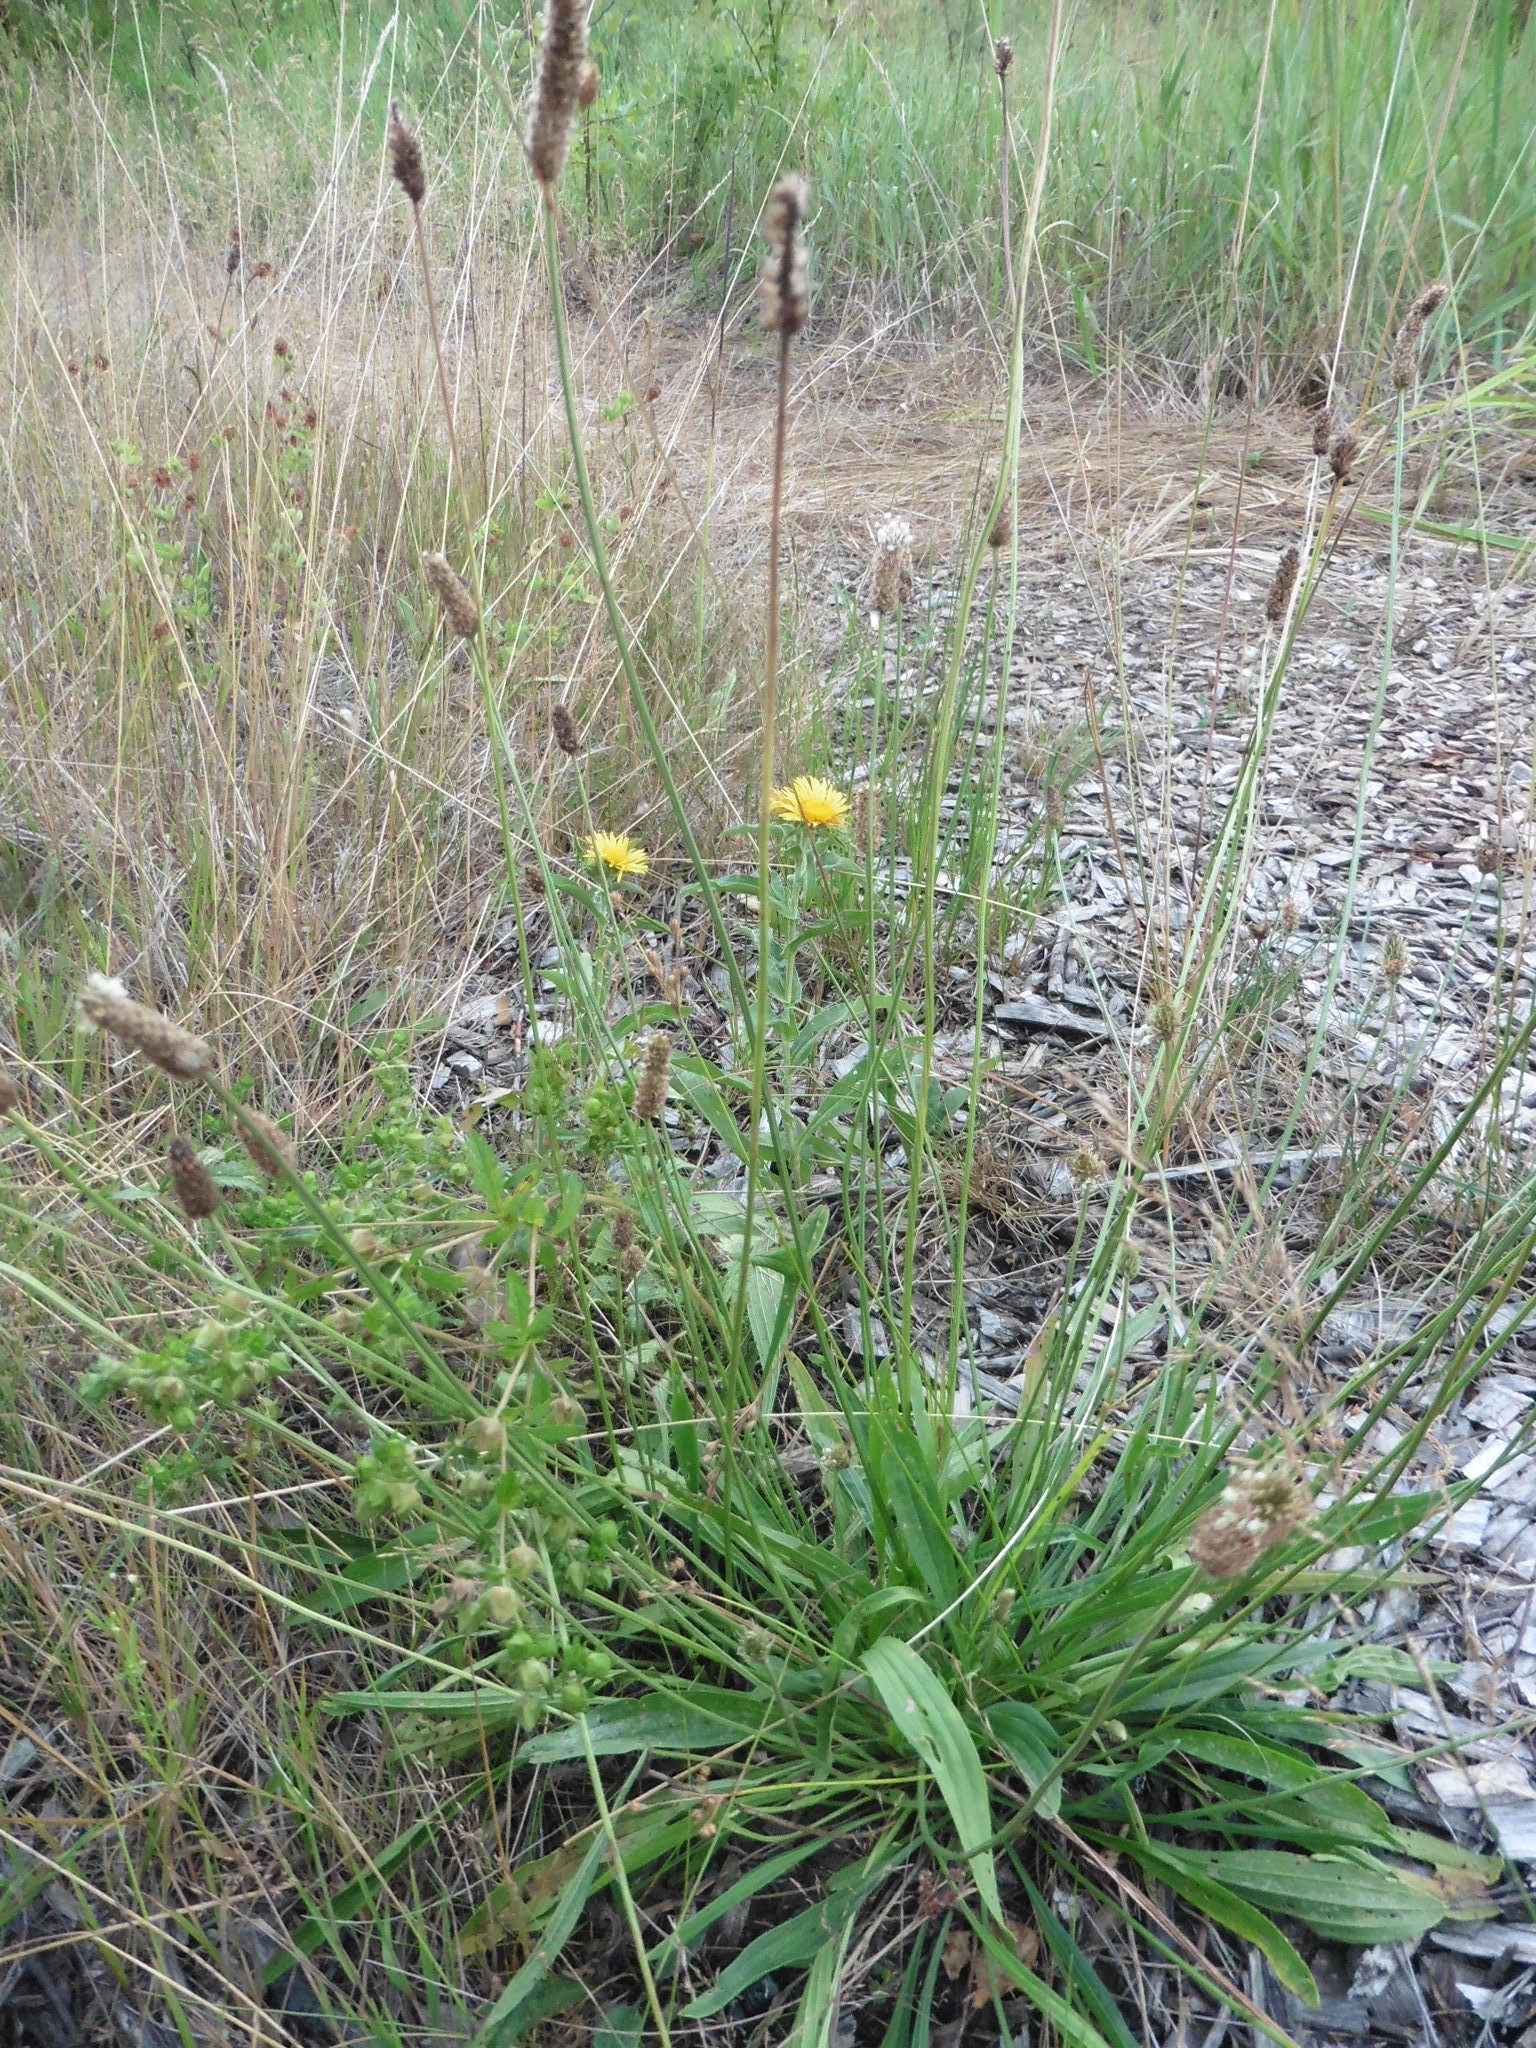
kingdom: Plantae
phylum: Tracheophyta
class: Magnoliopsida
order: Lamiales
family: Plantaginaceae
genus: Plantago
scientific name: Plantago lanceolata
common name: Ribwort plantain
